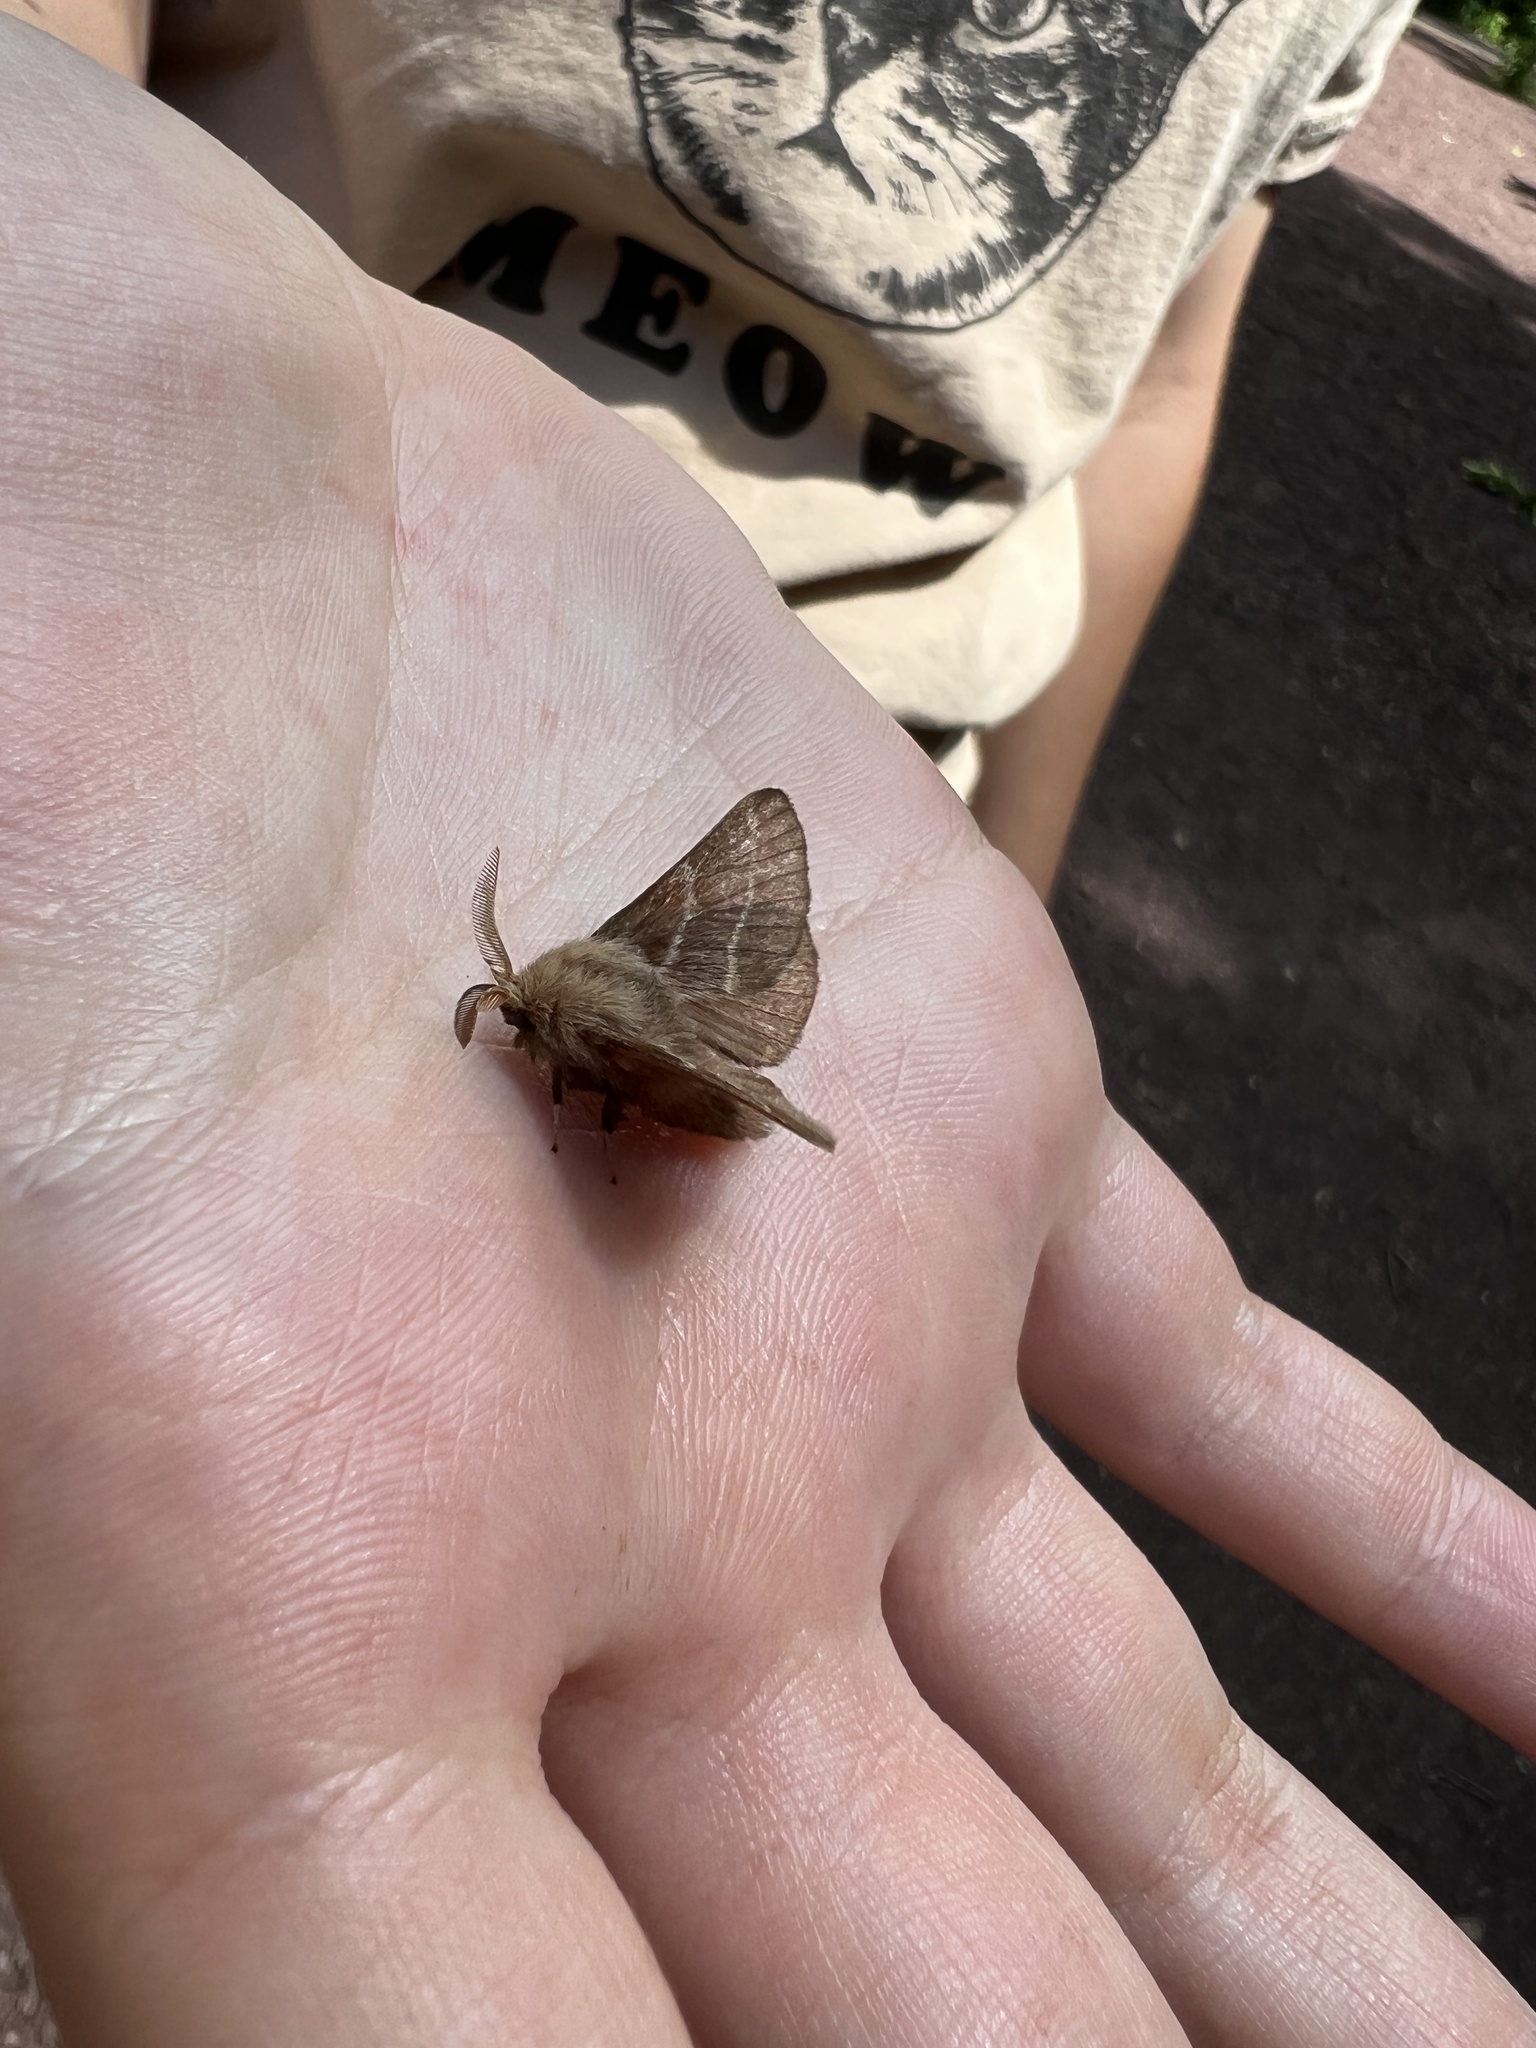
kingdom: Animalia
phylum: Arthropoda
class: Insecta
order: Lepidoptera
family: Lasiocampidae
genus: Malacosoma
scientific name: Malacosoma americana
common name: Eastern tent caterpillar moth
